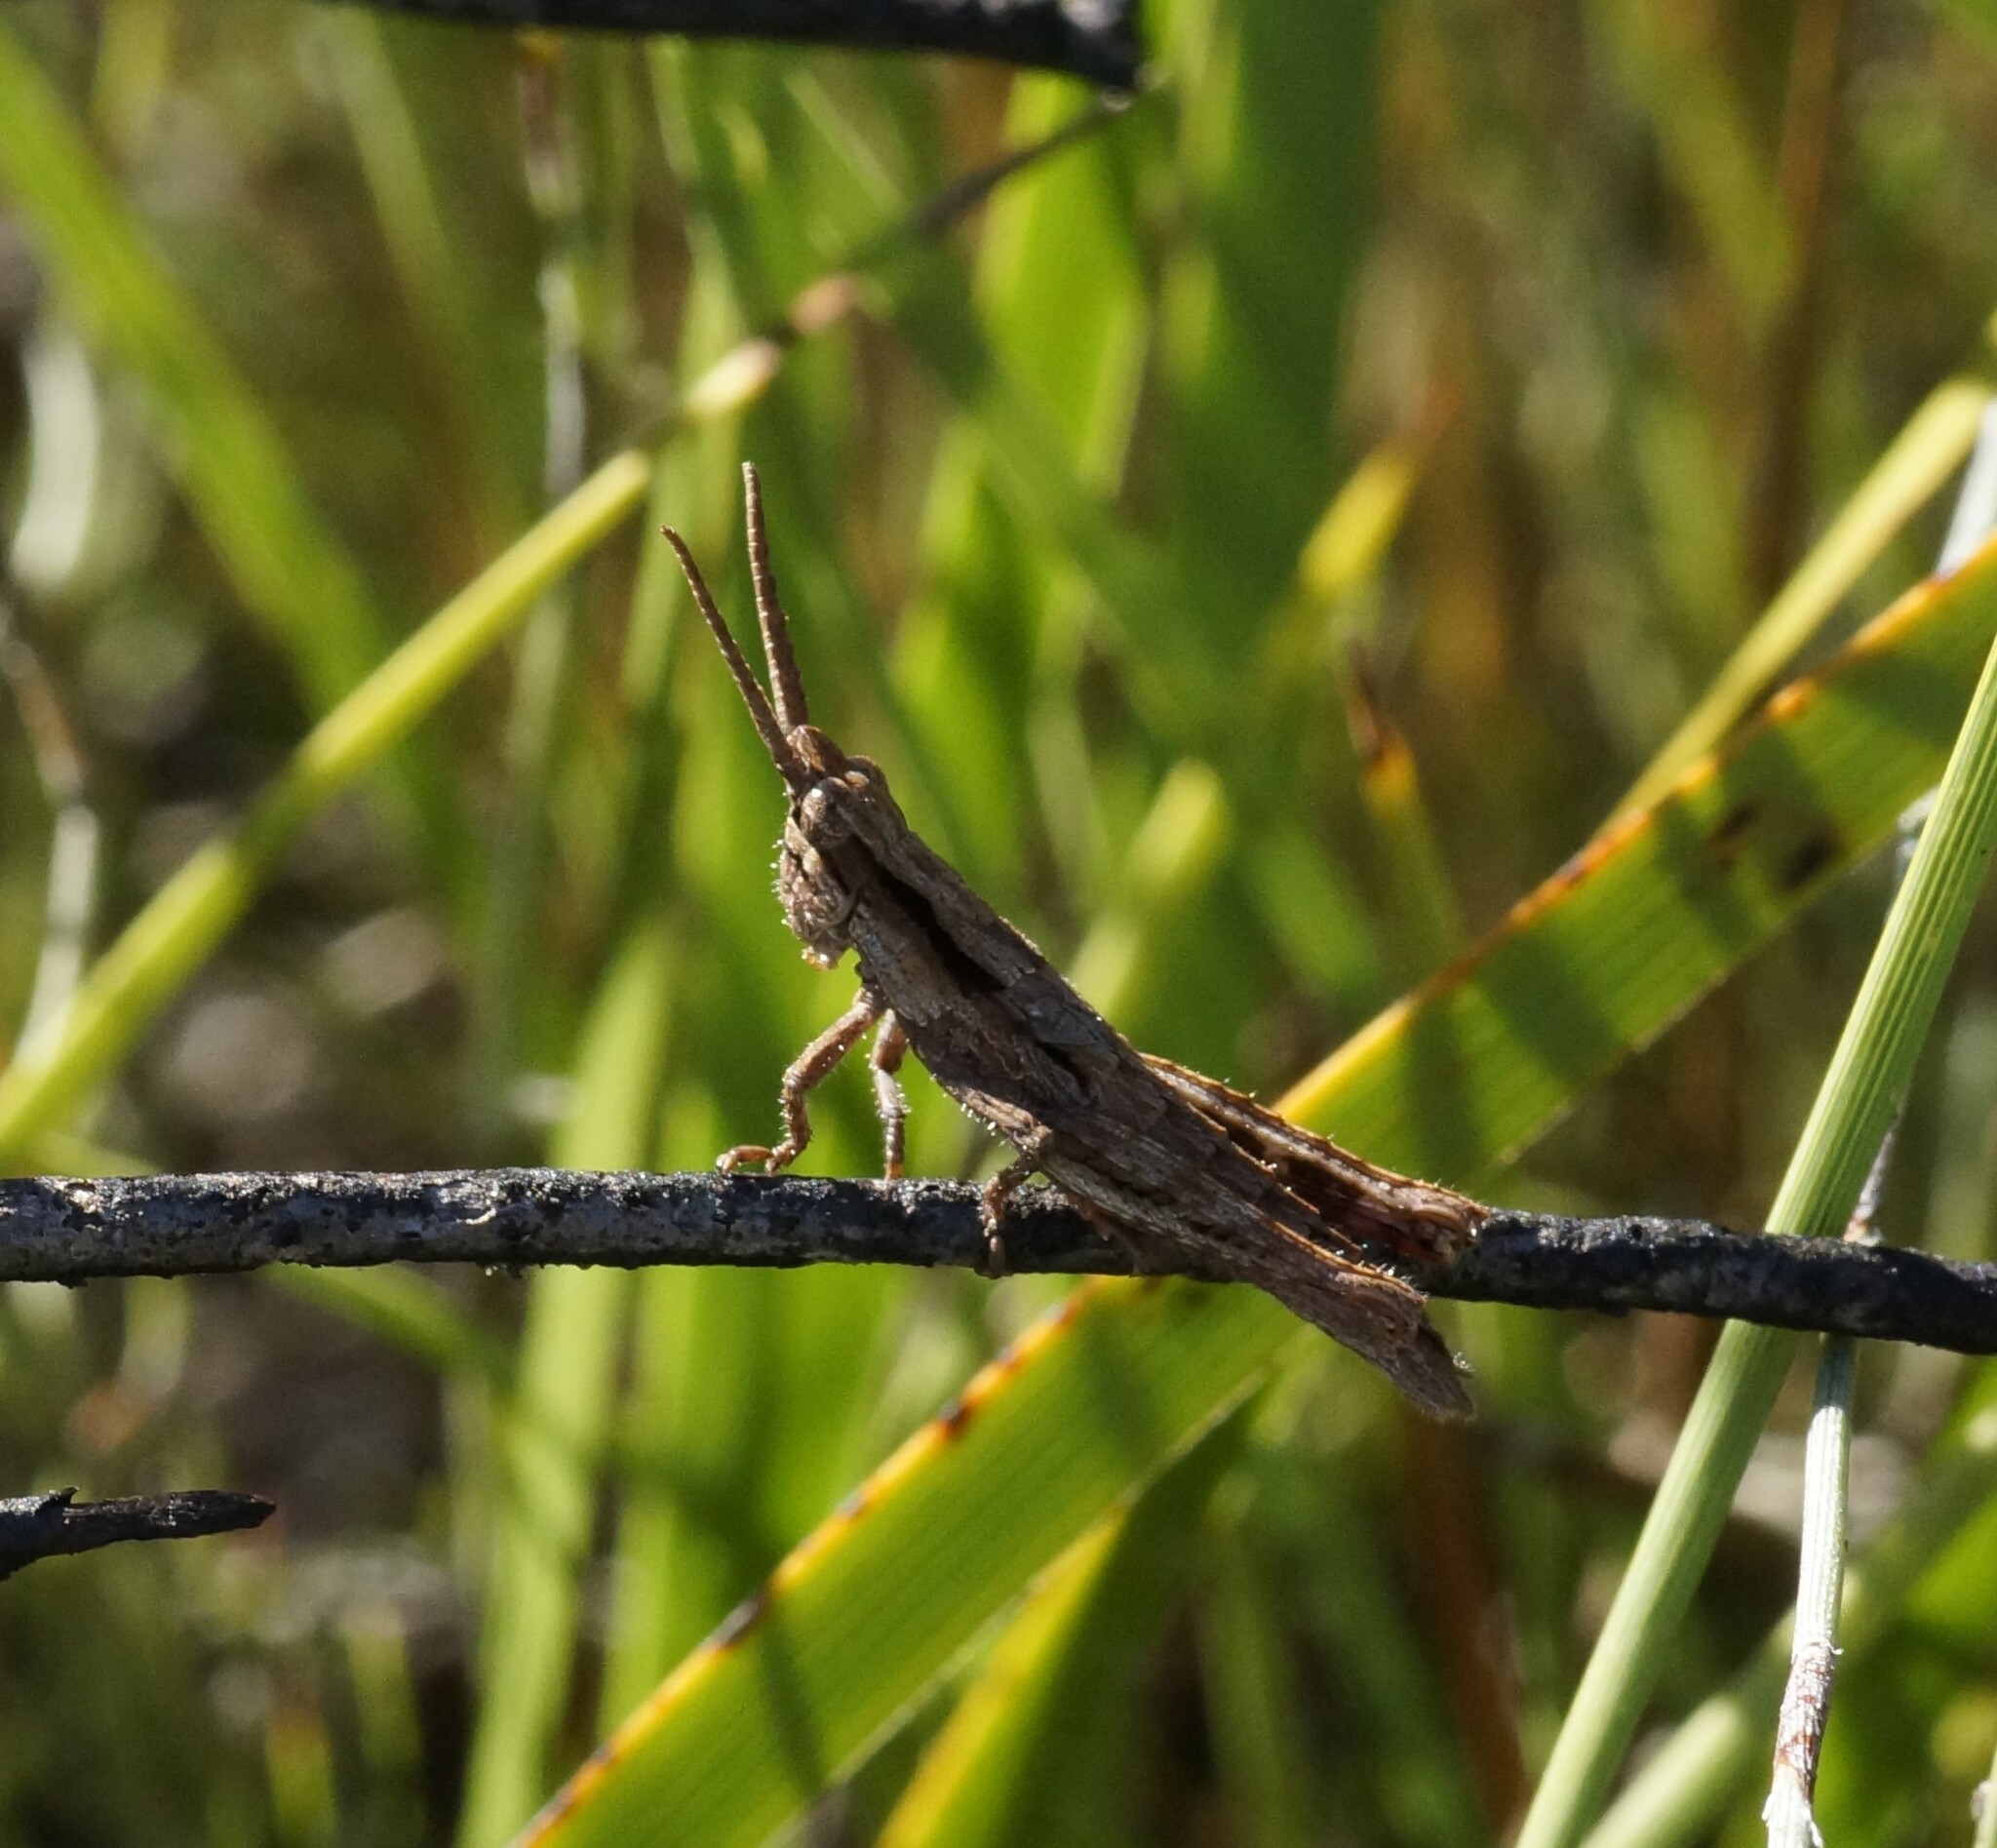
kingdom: Animalia
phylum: Arthropoda
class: Insecta
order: Orthoptera
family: Acrididae
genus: Coryphistes
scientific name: Coryphistes ruricola
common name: Bark-mimicking grasshopper
